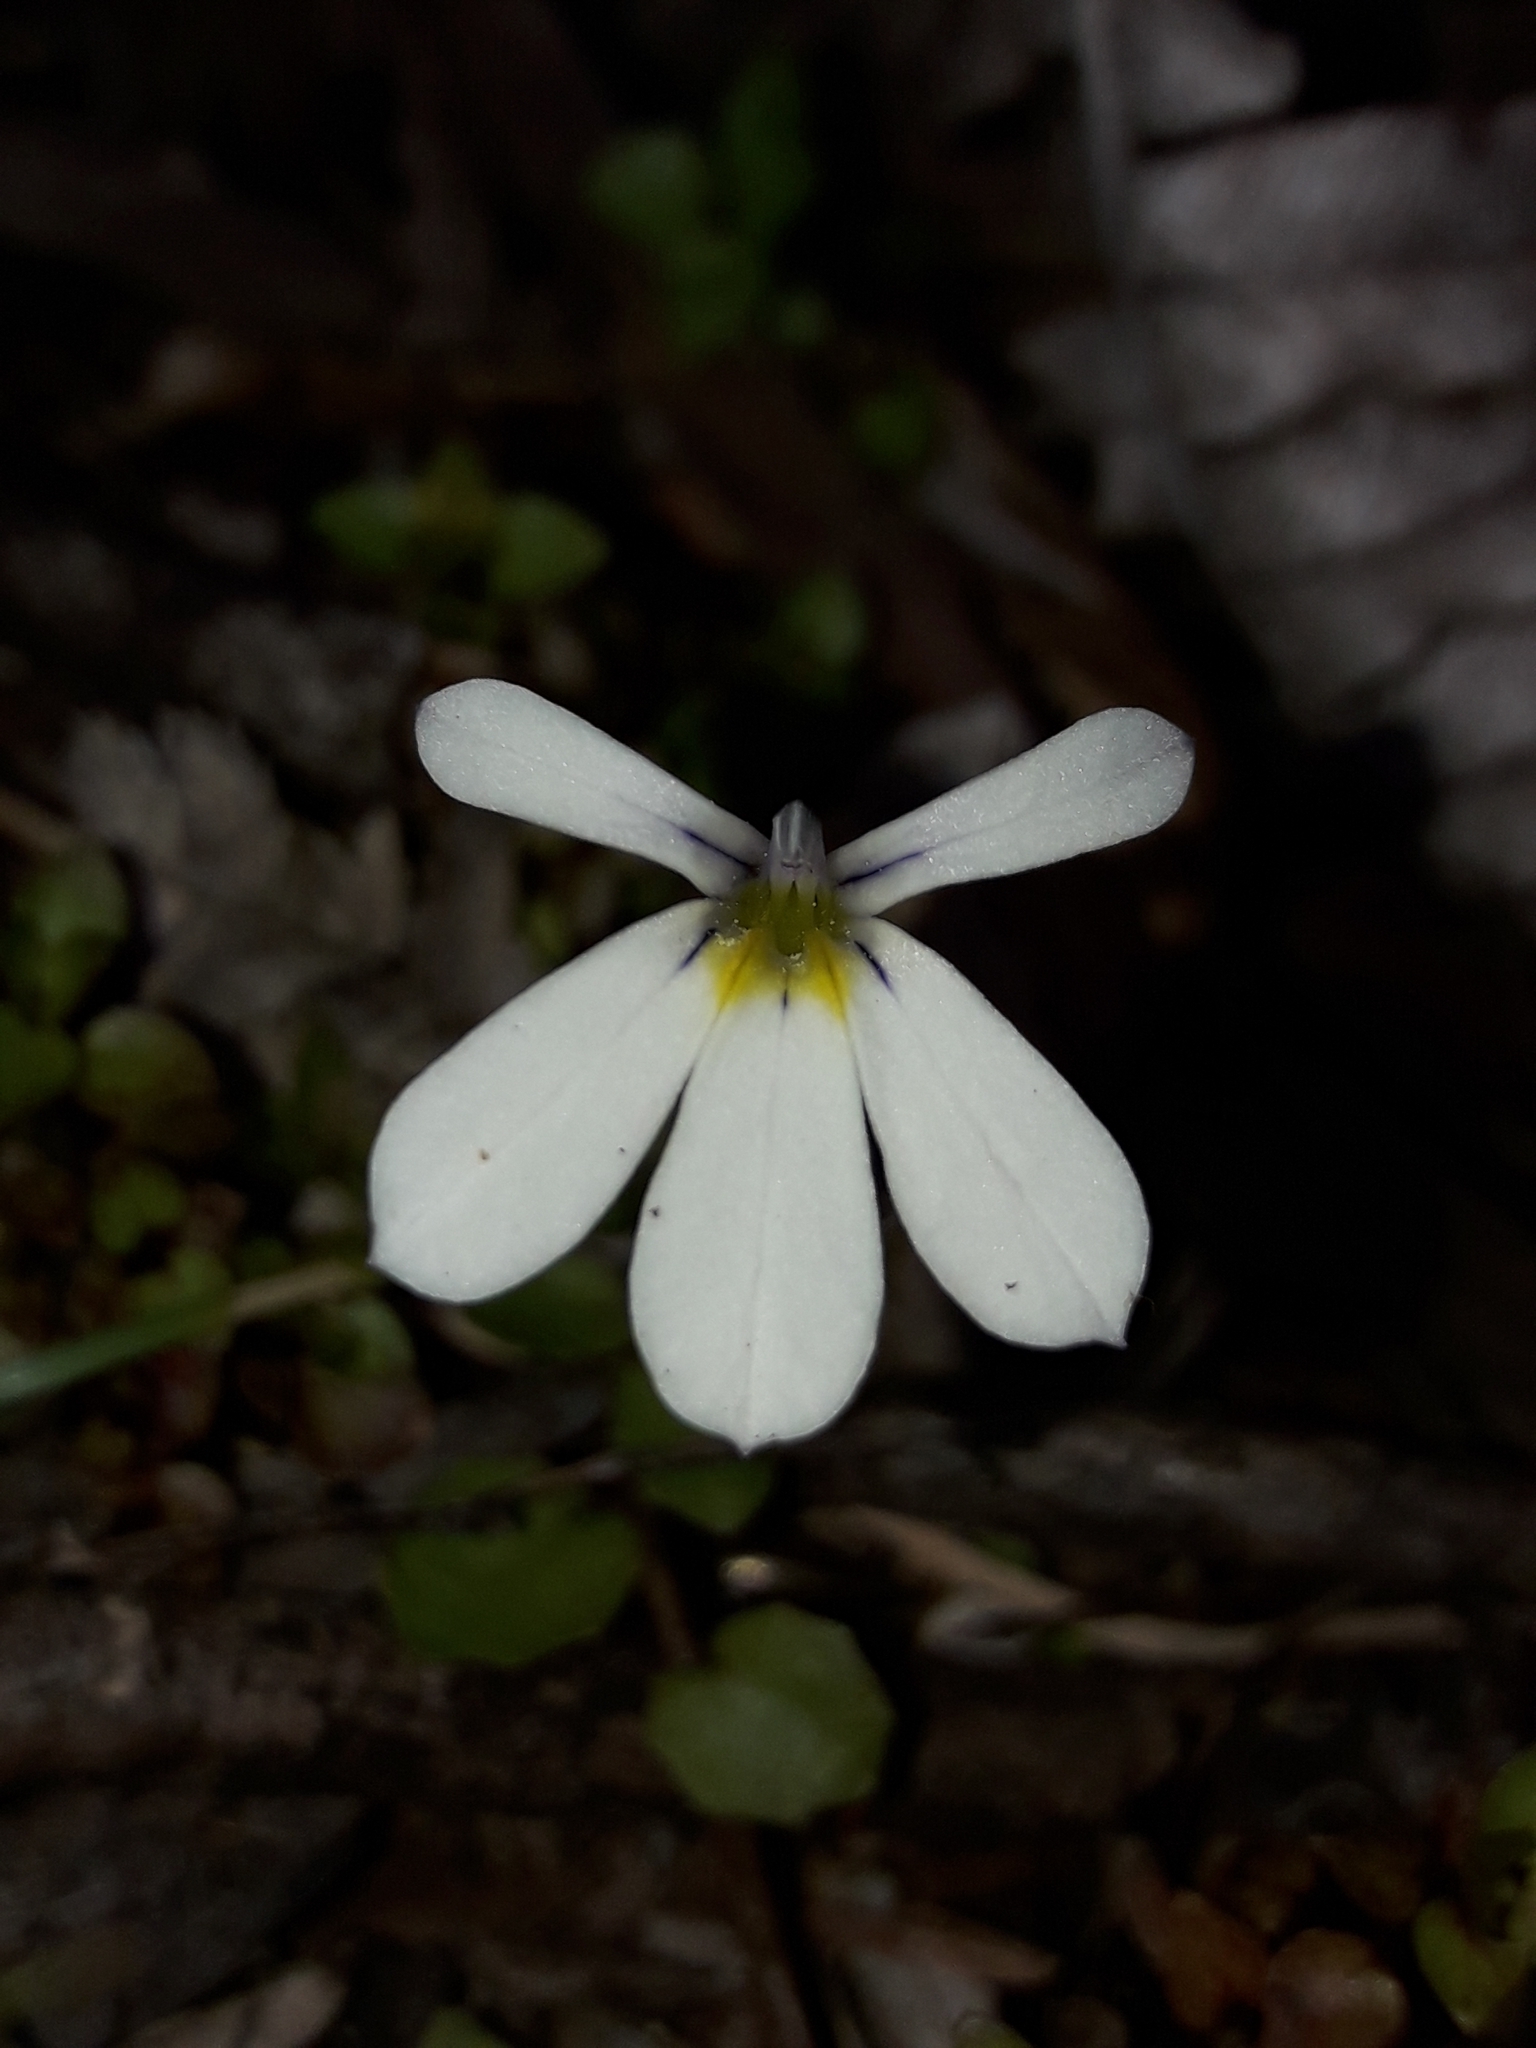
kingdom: Plantae
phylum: Tracheophyta
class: Magnoliopsida
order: Asterales
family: Campanulaceae
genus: Lobelia
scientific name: Lobelia angulata
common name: Lawn lobelia
